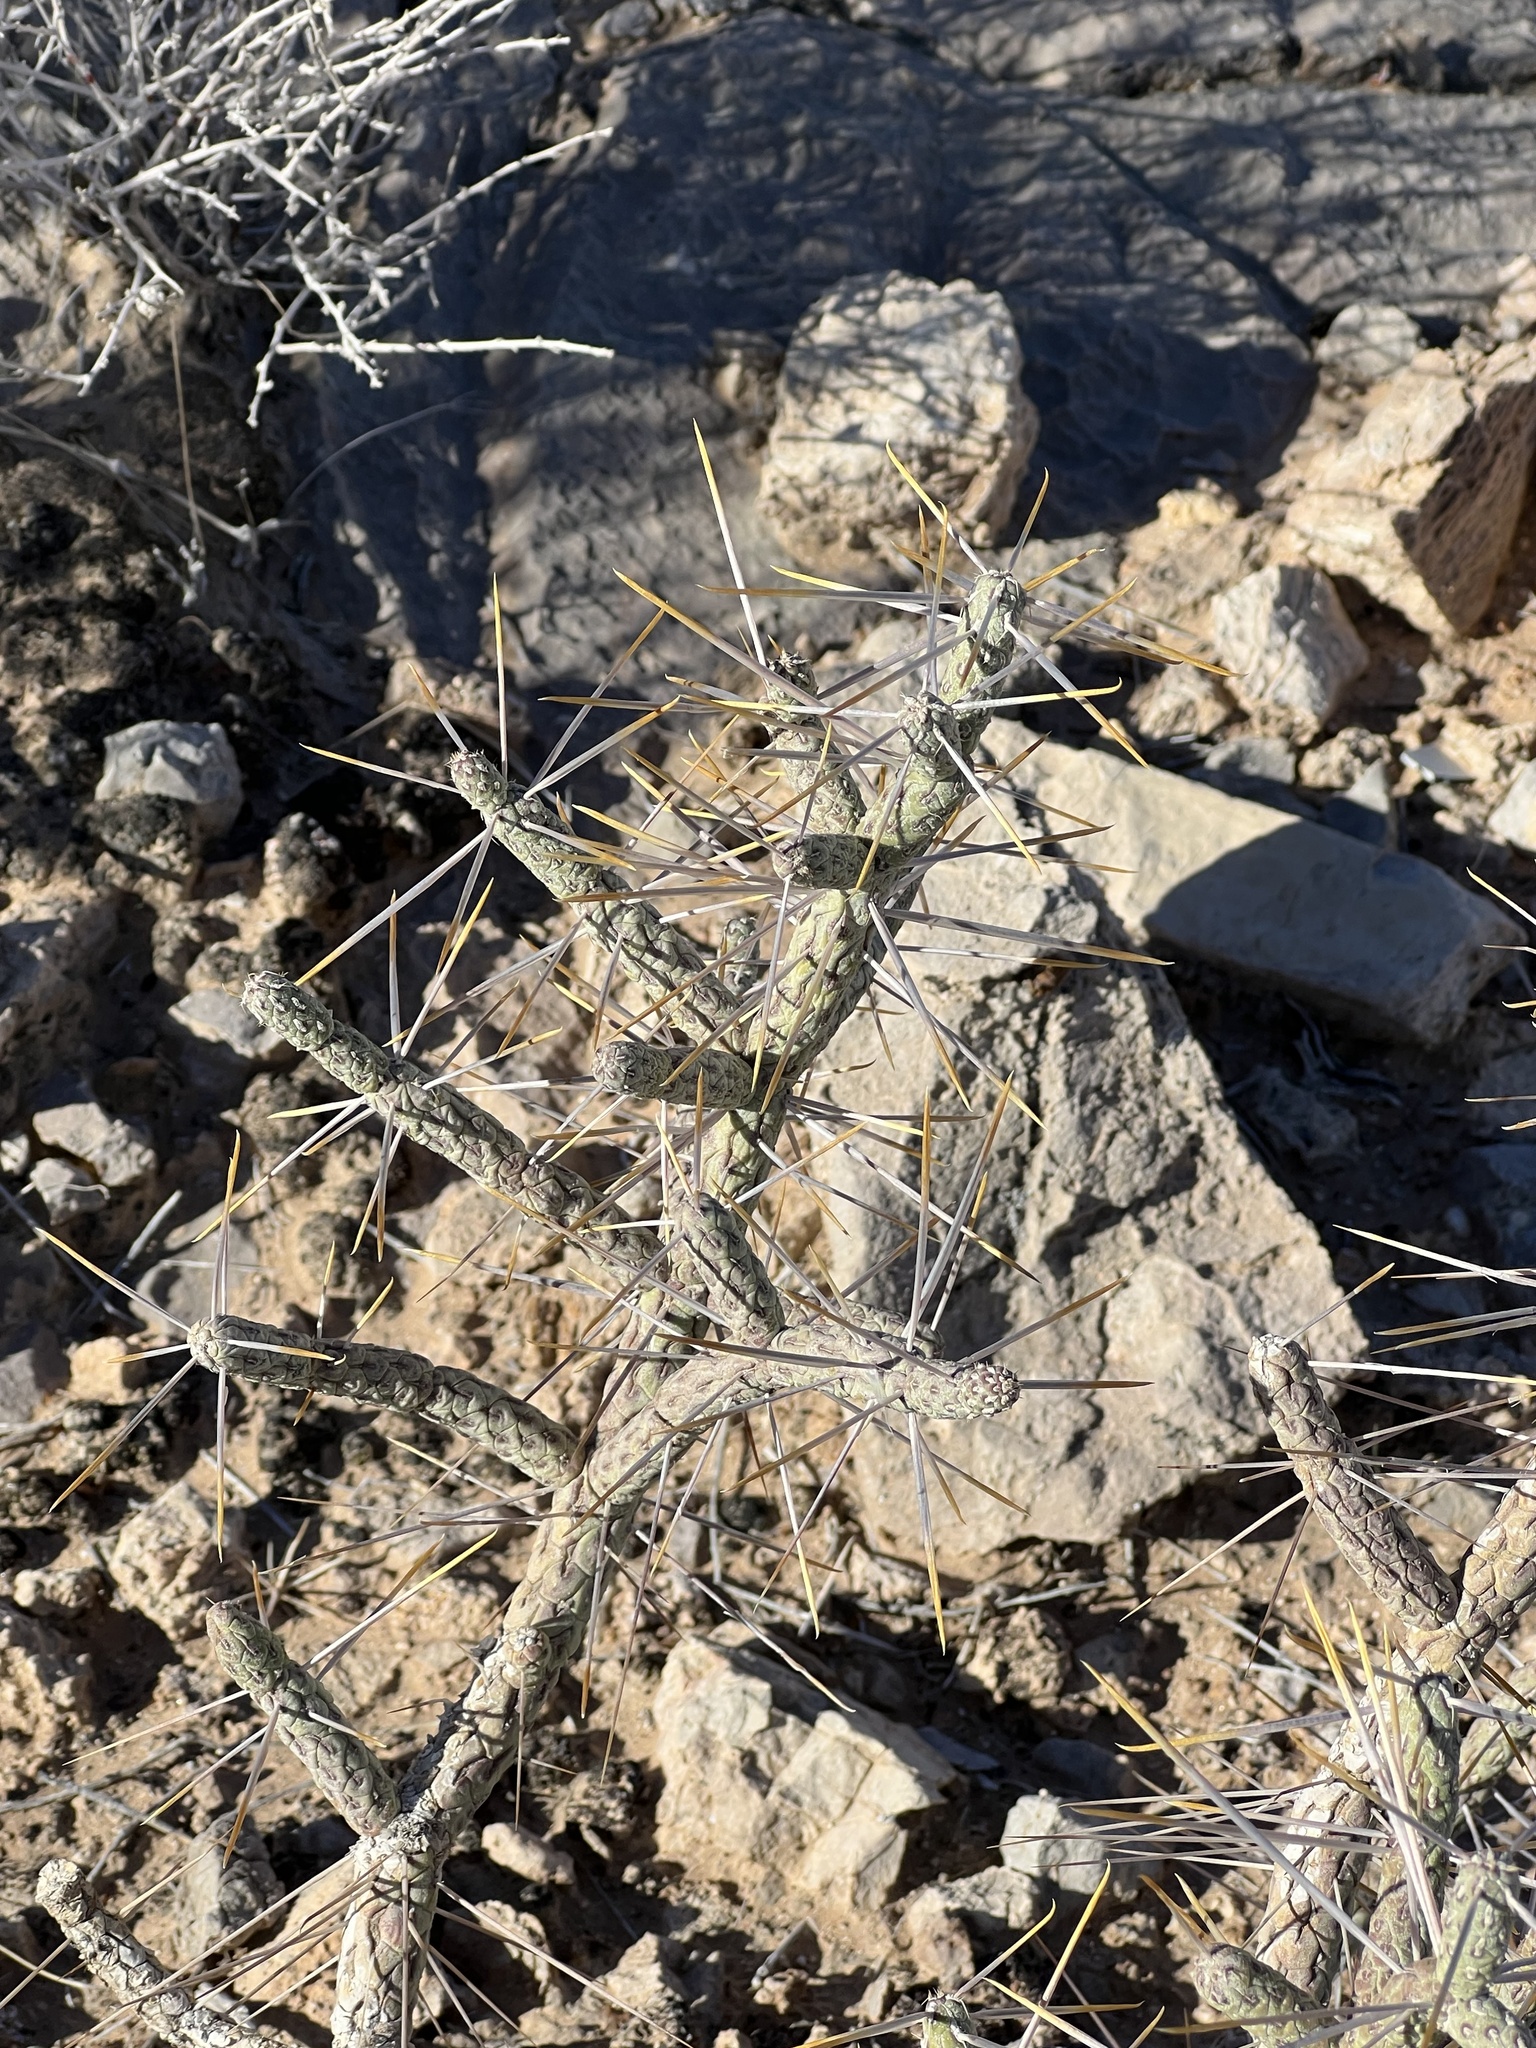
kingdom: Plantae
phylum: Tracheophyta
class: Magnoliopsida
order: Caryophyllales
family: Cactaceae
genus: Cylindropuntia
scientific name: Cylindropuntia ramosissima
